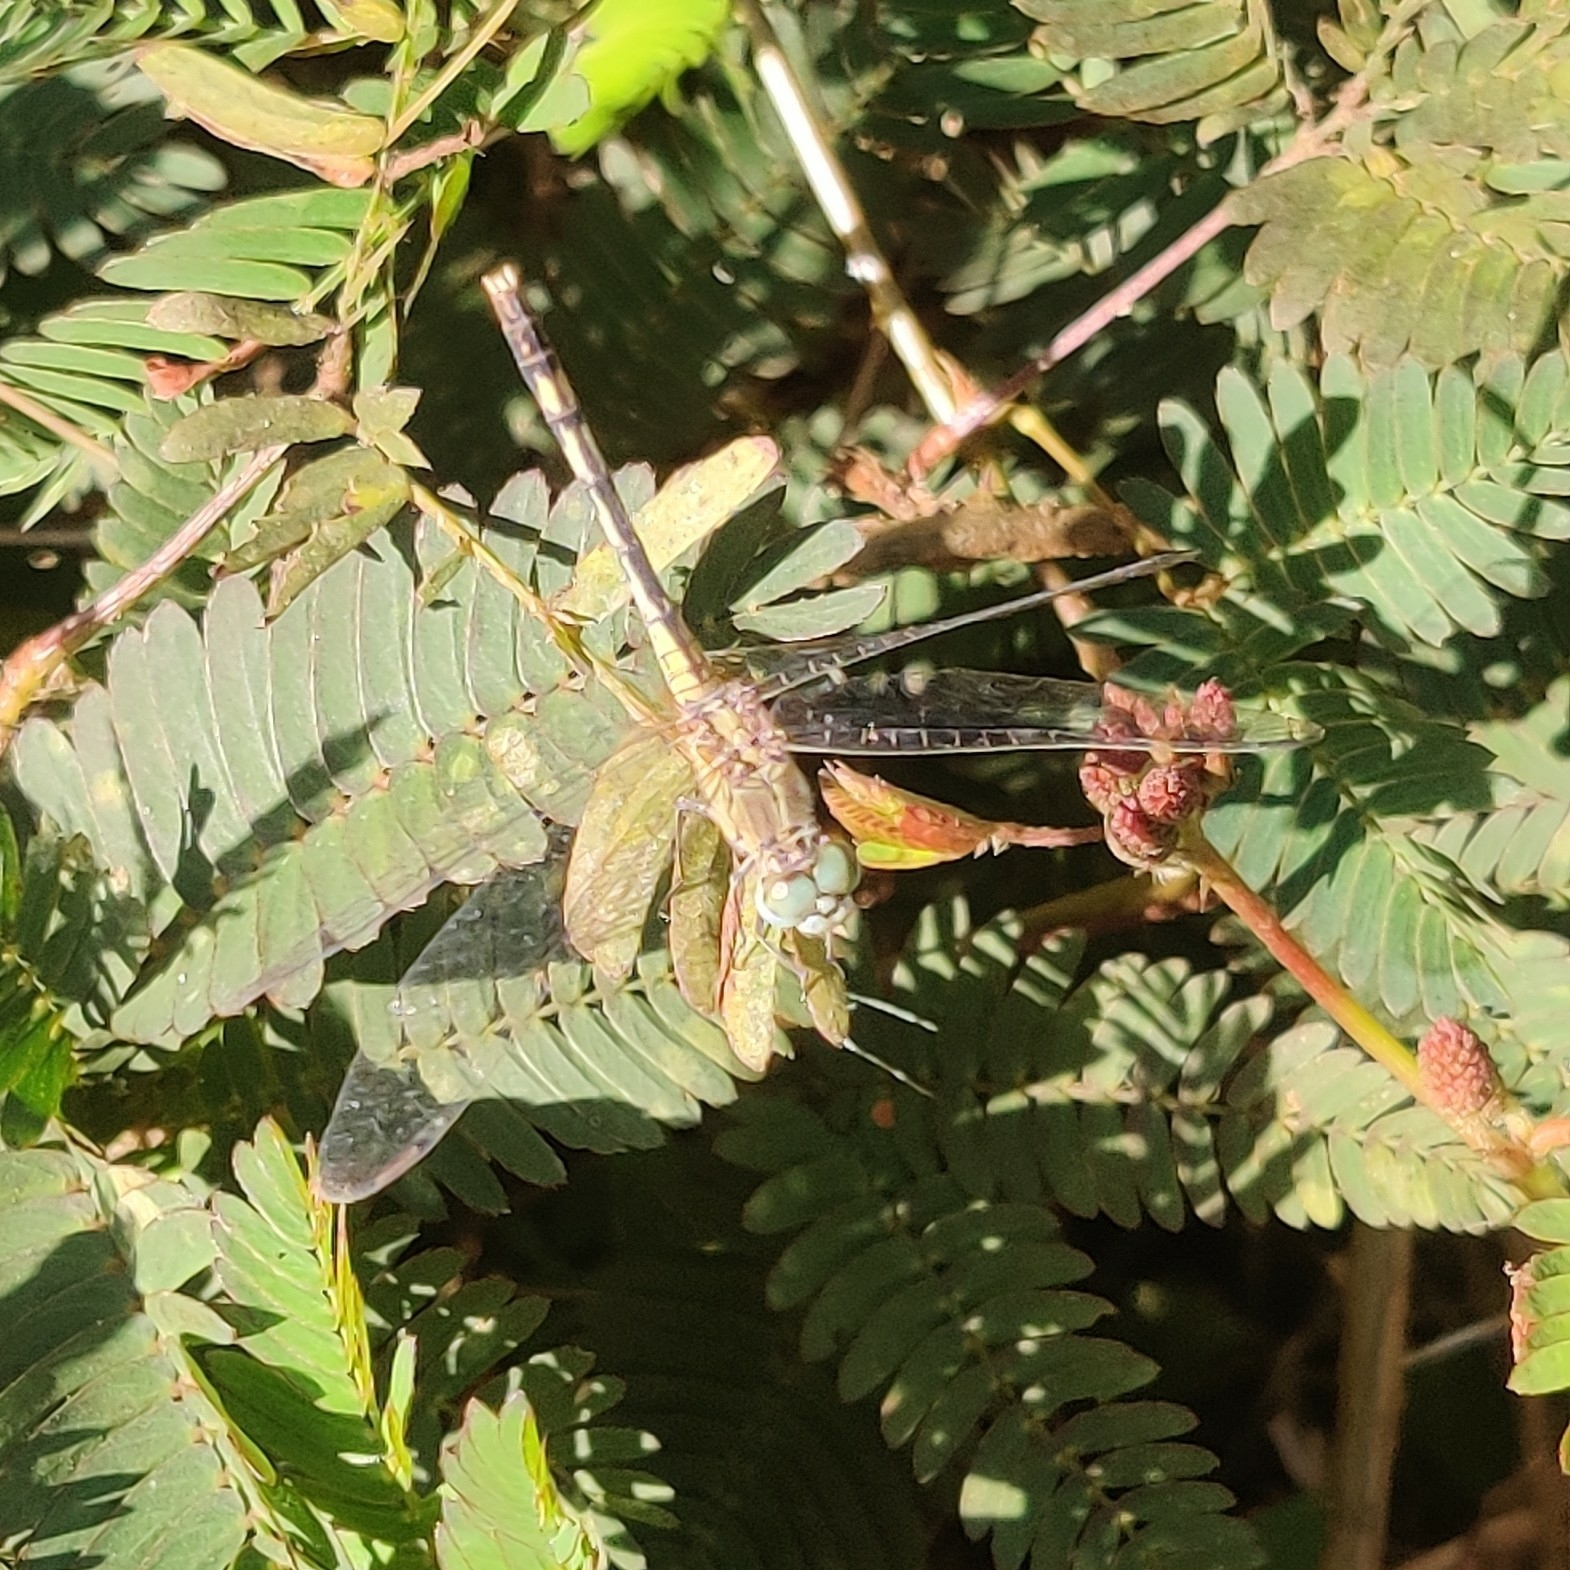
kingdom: Animalia
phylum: Arthropoda
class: Insecta
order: Odonata
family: Libellulidae
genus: Diplacodes
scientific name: Diplacodes trivialis
